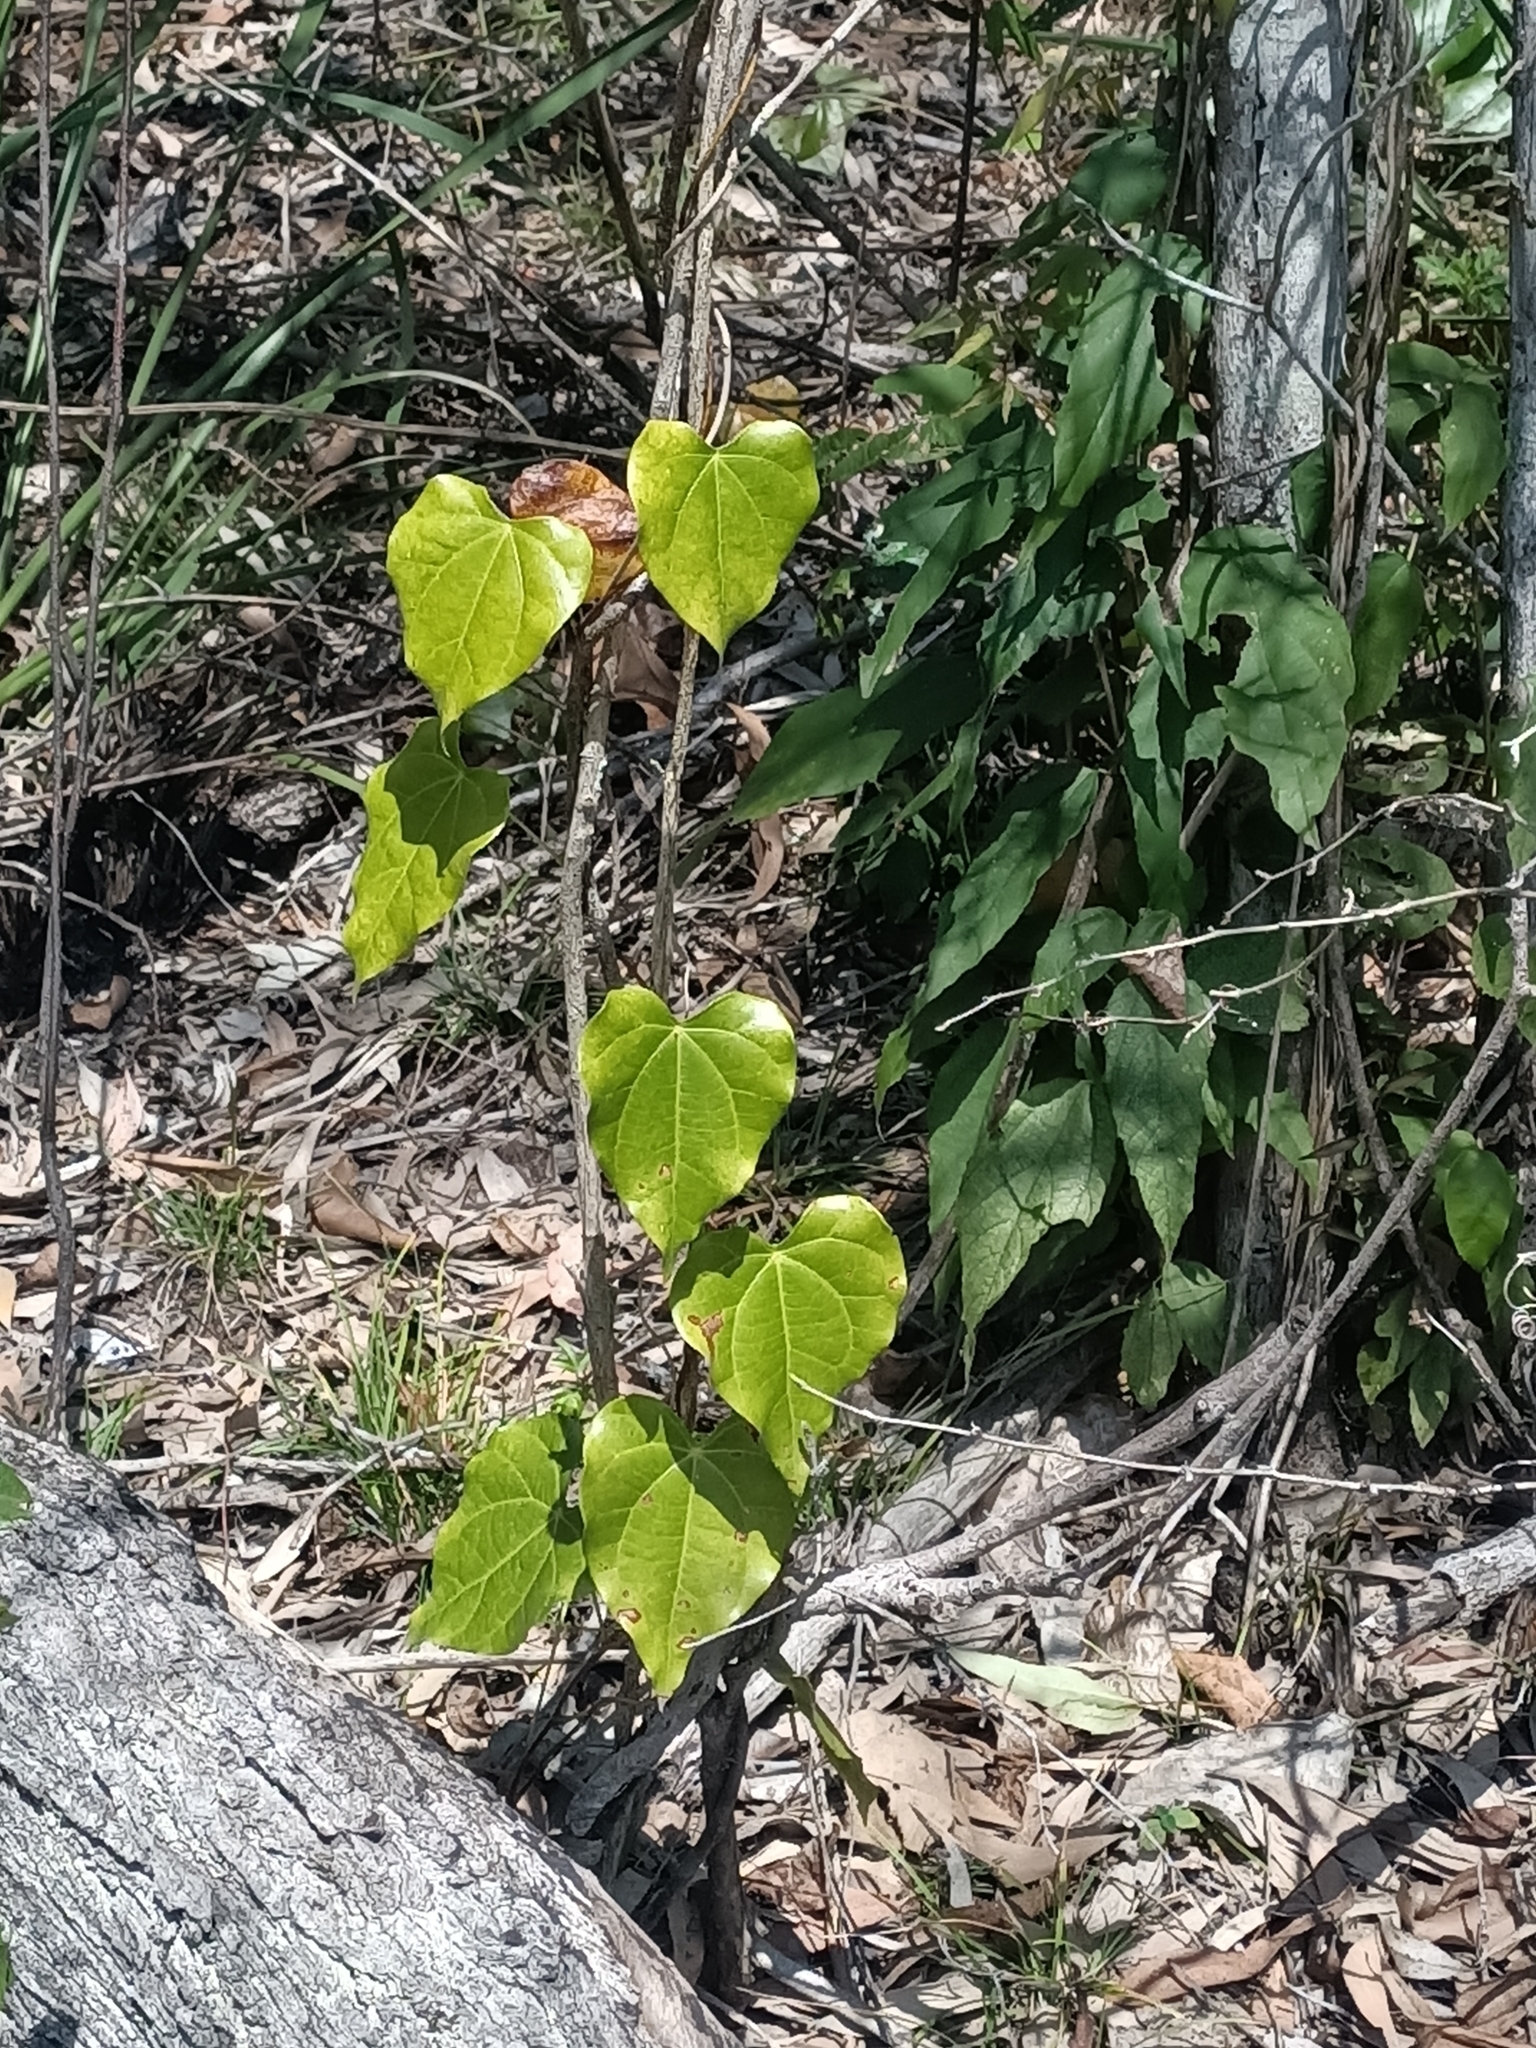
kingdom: Plantae
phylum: Tracheophyta
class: Magnoliopsida
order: Ranunculales
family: Menispermaceae
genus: Sarcopetalum
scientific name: Sarcopetalum harveyanum
